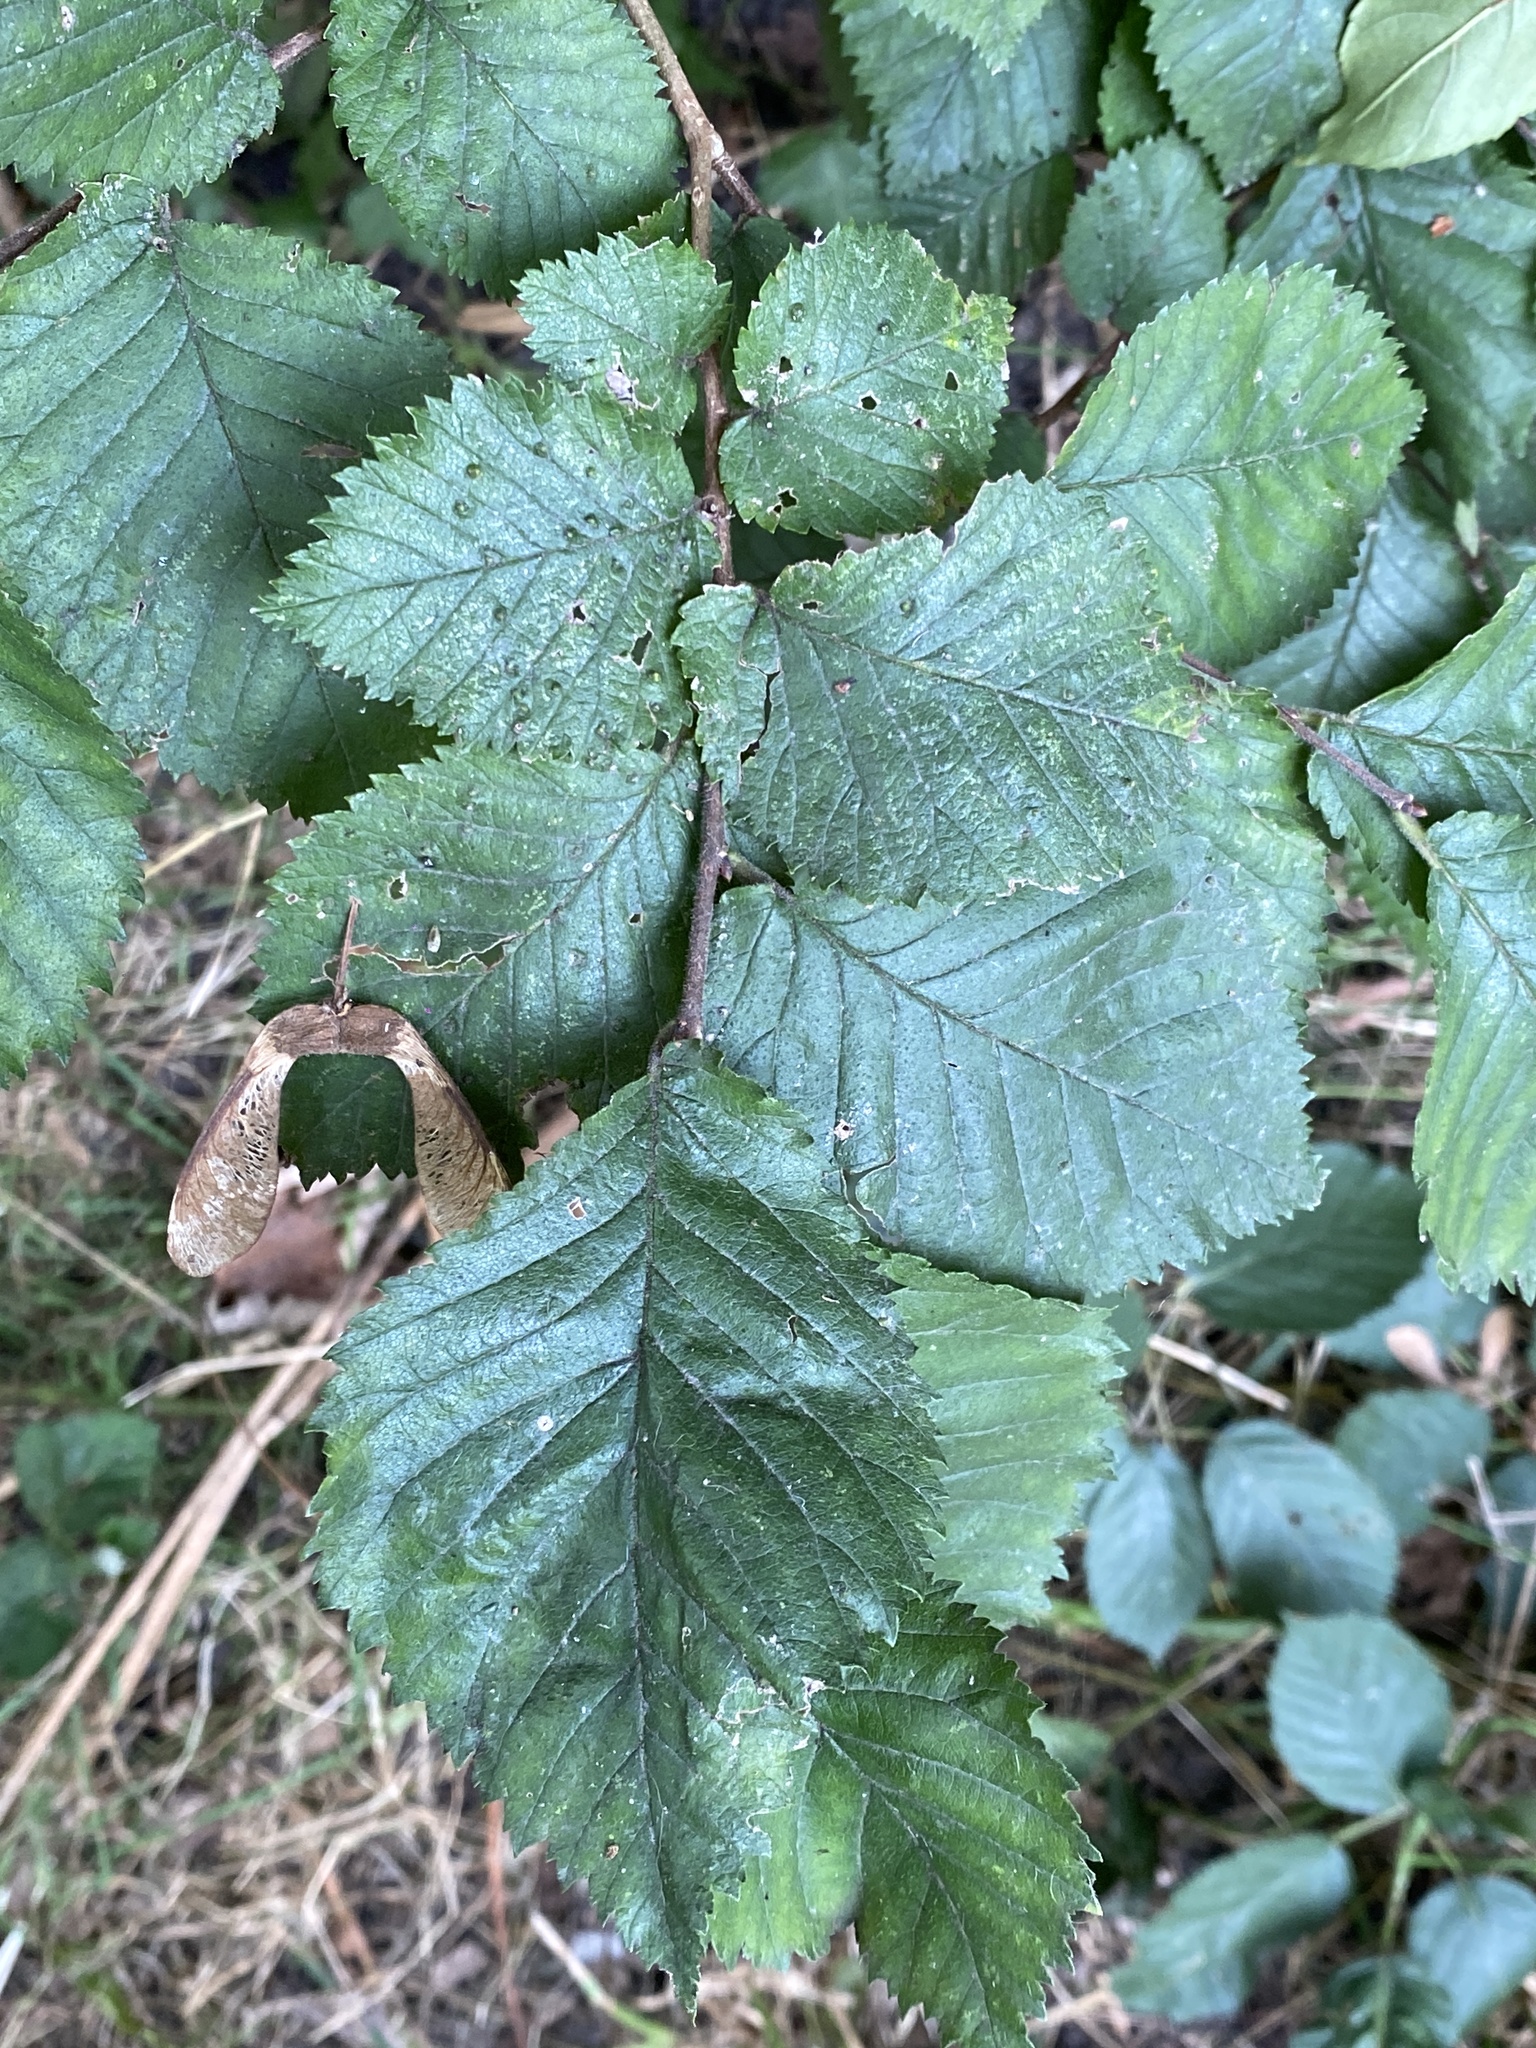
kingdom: Plantae
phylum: Tracheophyta
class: Magnoliopsida
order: Rosales
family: Ulmaceae
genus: Ulmus
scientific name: Ulmus glabra
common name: Wych elm
